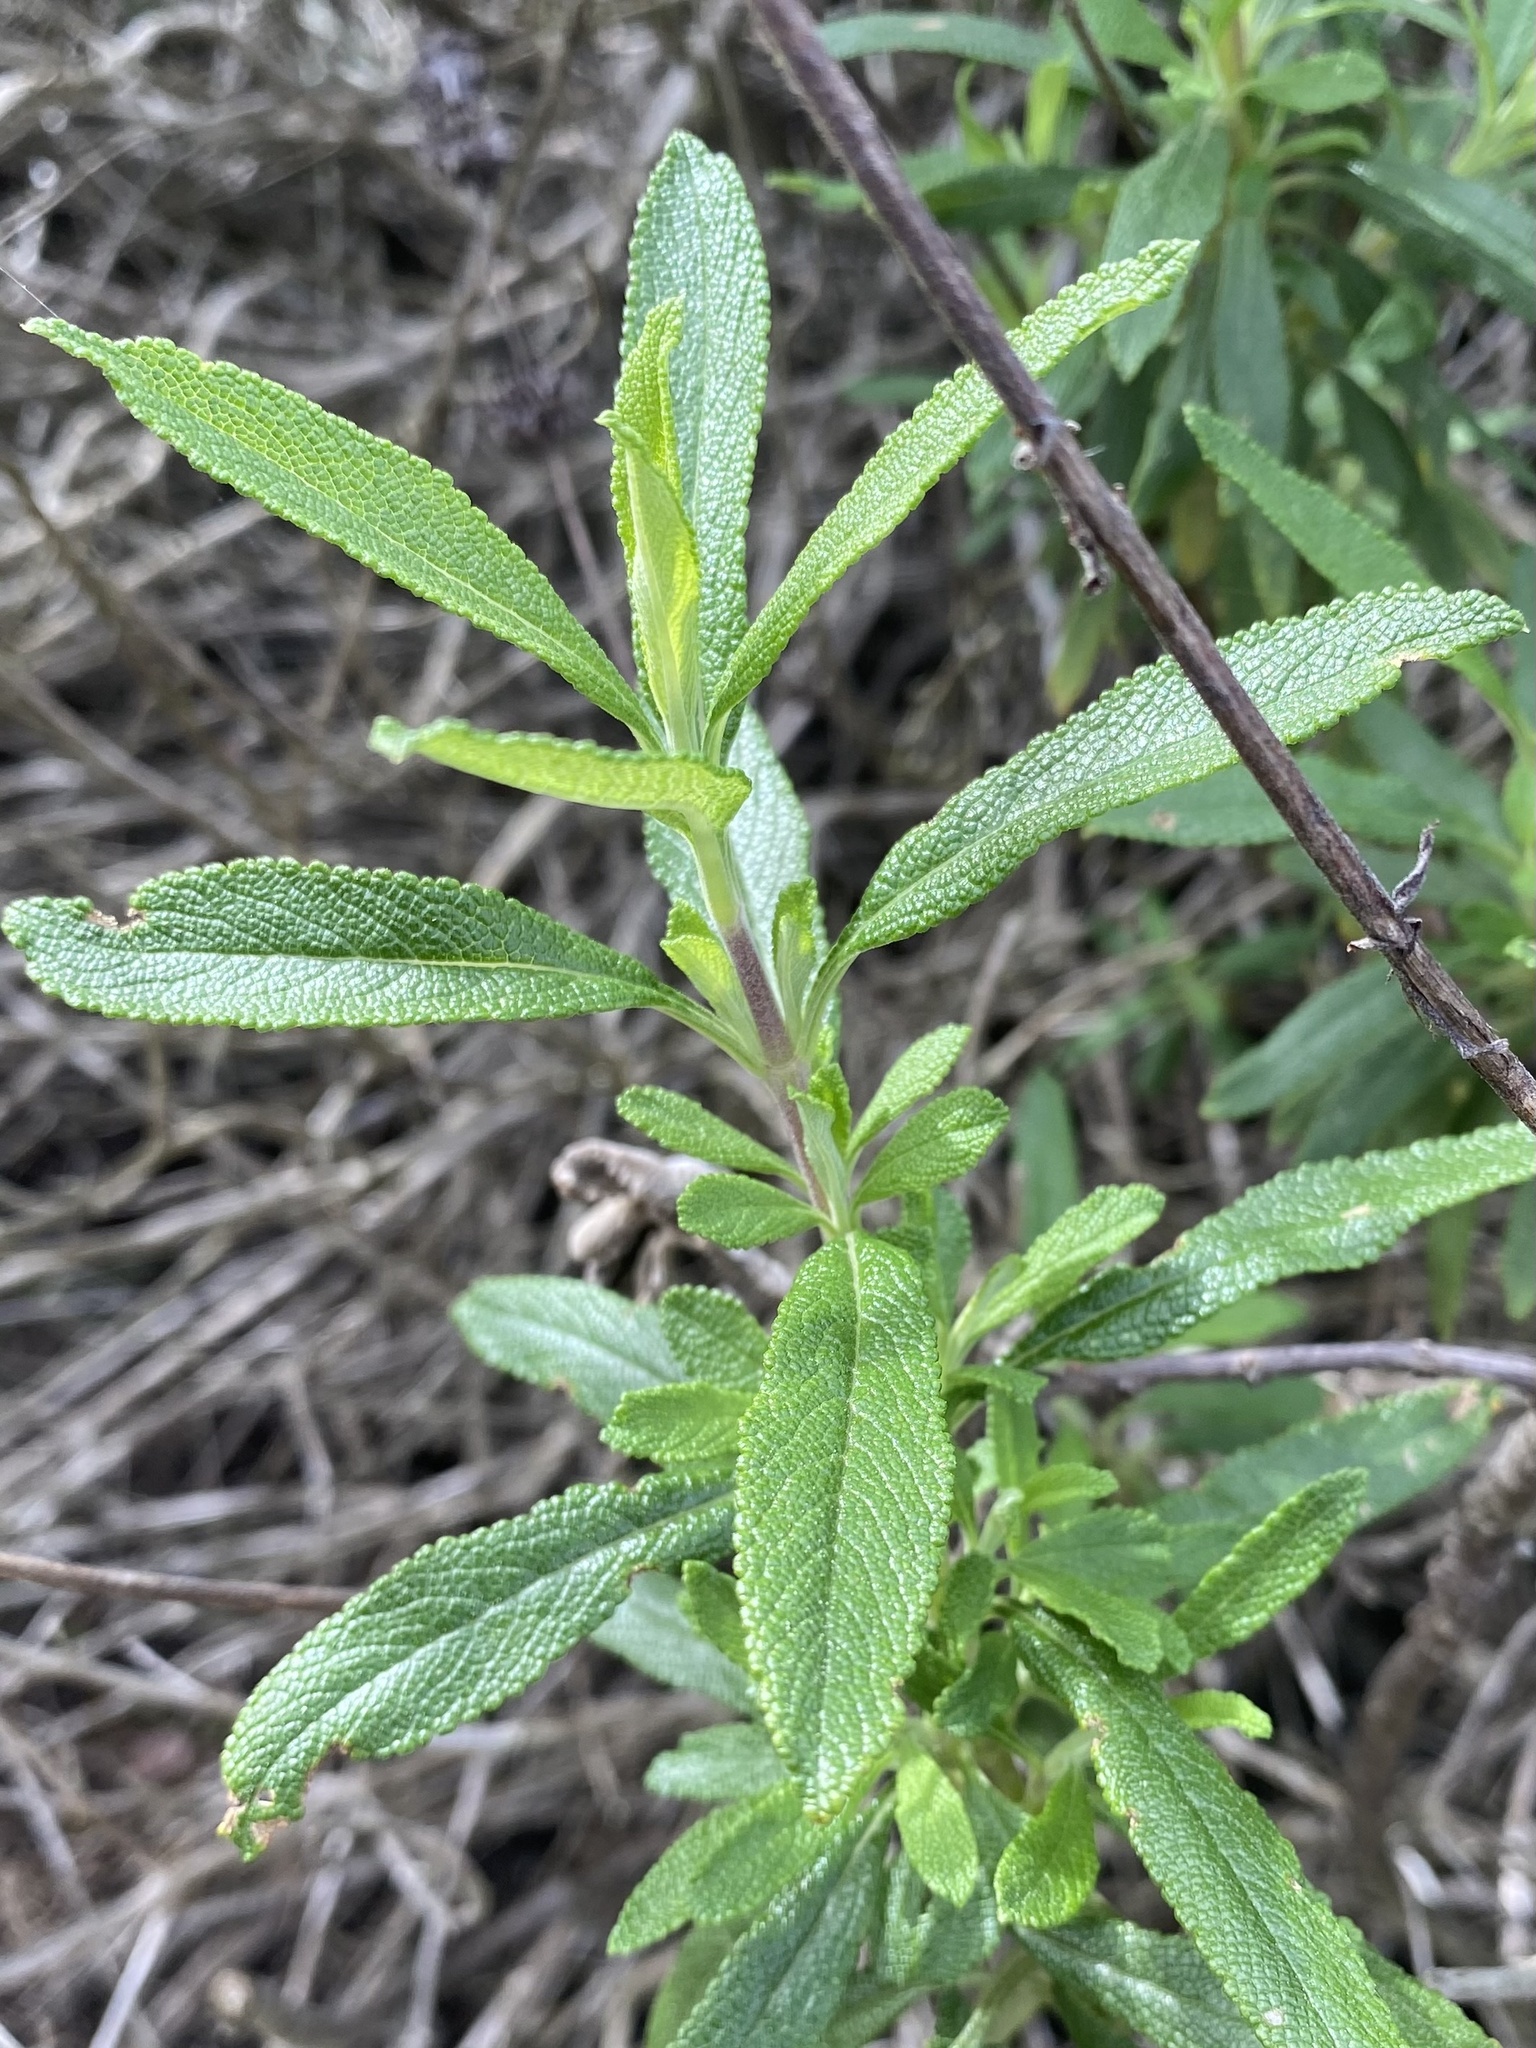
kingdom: Plantae
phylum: Tracheophyta
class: Magnoliopsida
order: Lamiales
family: Lamiaceae
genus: Salvia
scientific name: Salvia mellifera
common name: Black sage
